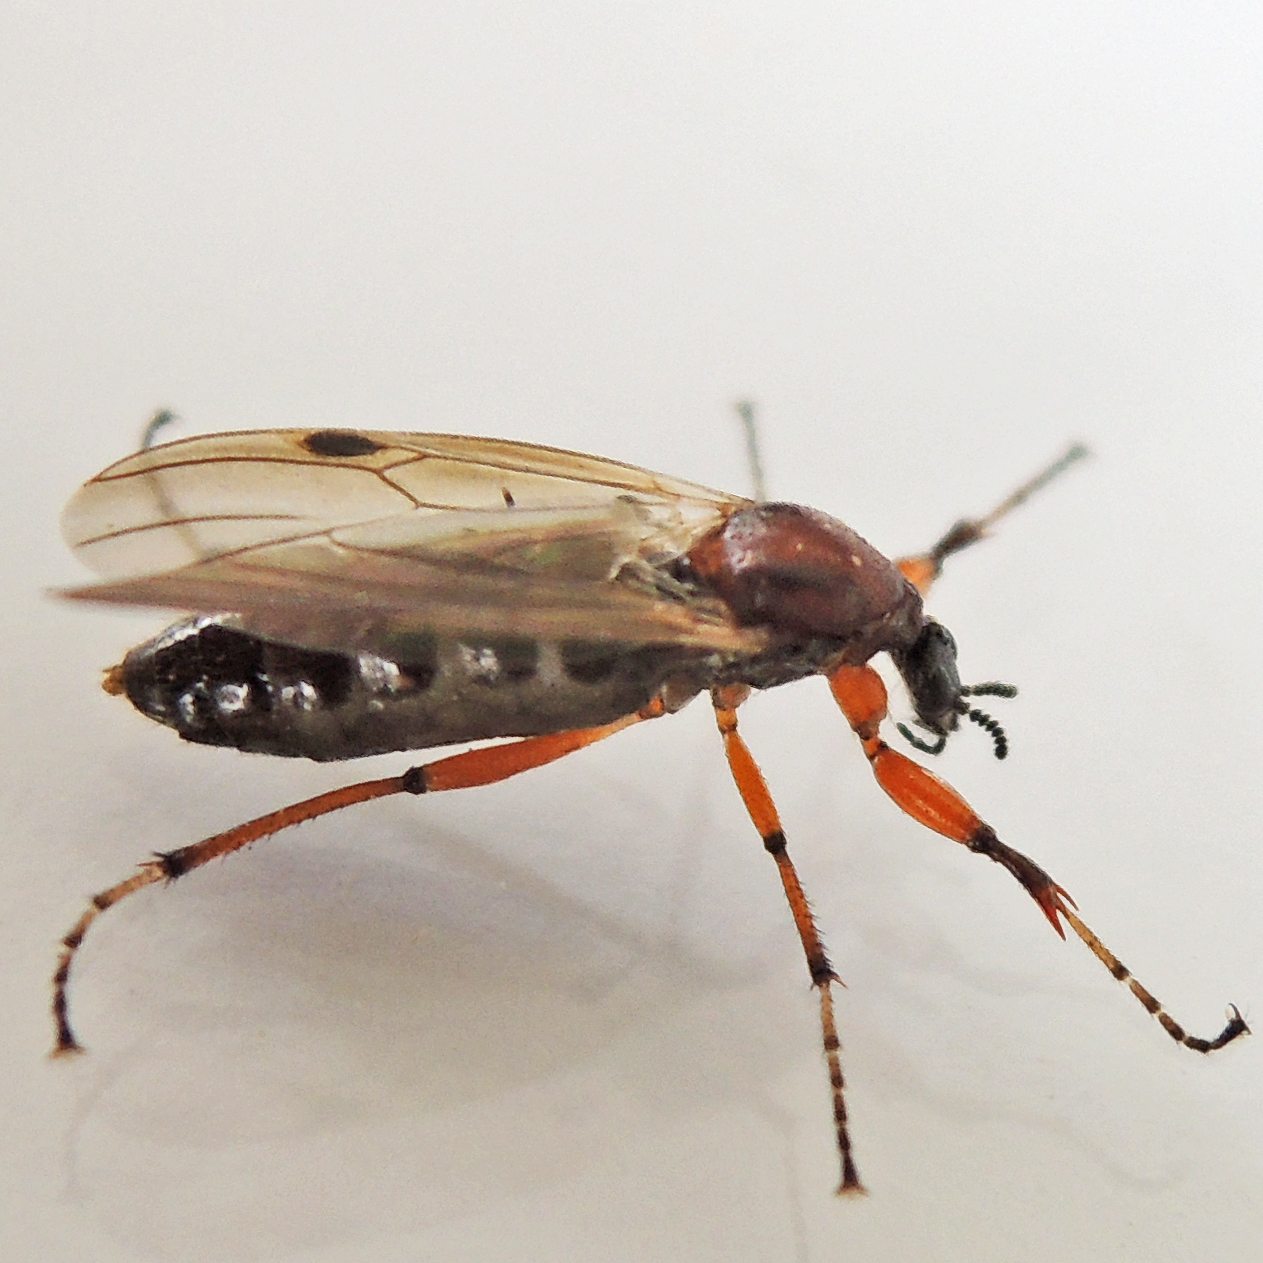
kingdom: Animalia
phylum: Arthropoda
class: Insecta
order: Diptera
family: Bibionidae
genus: Bibio
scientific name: Bibio articulatus
